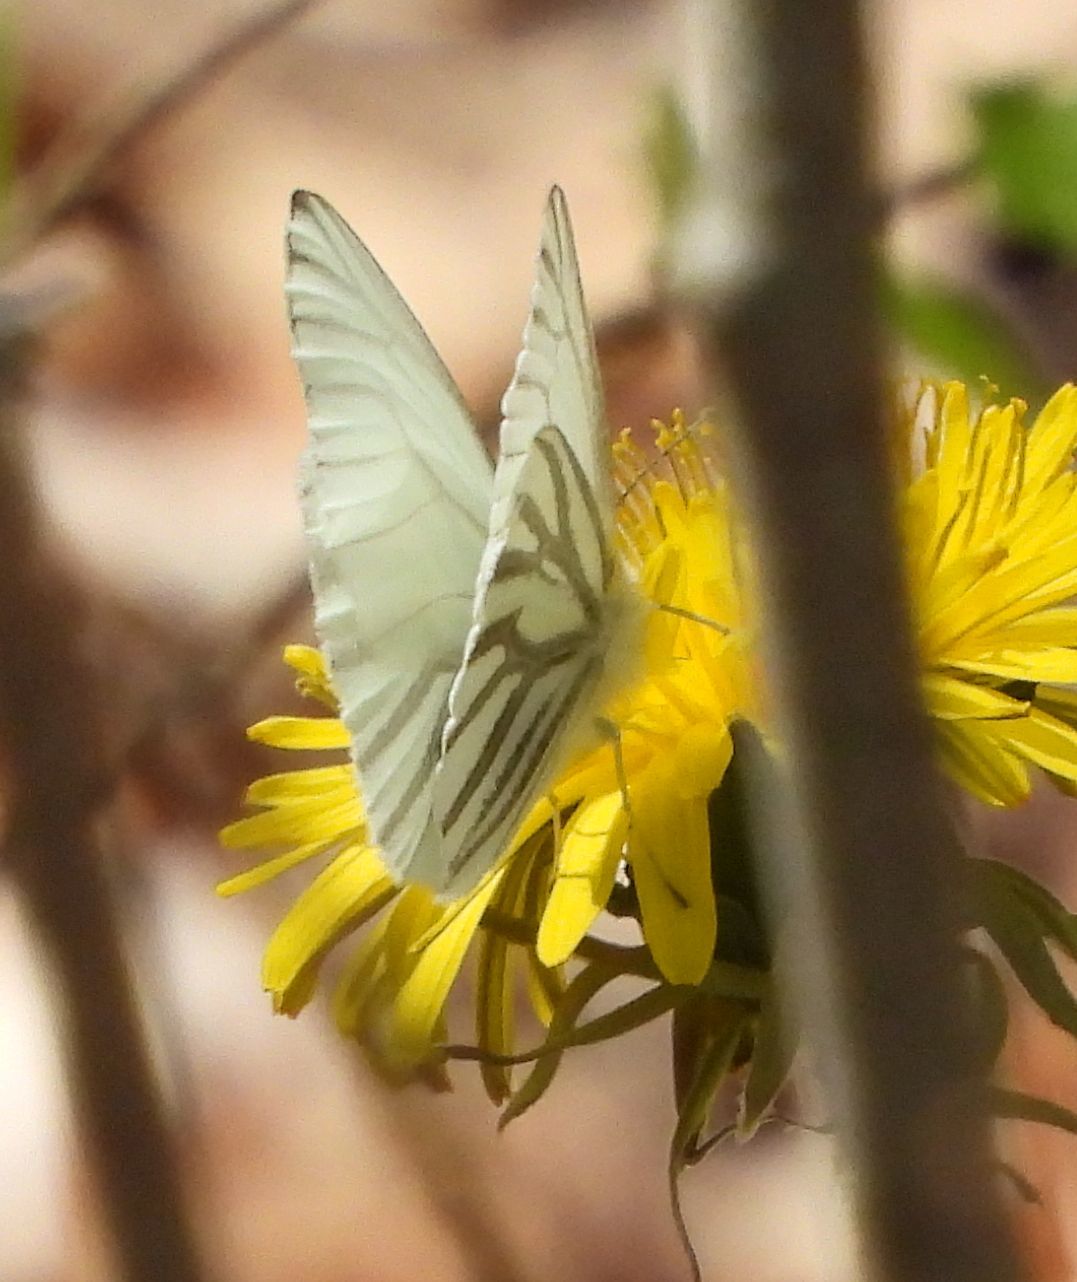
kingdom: Animalia
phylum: Arthropoda
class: Insecta
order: Lepidoptera
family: Pieridae
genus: Pieris
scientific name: Pieris oleracea
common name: Mustard white
